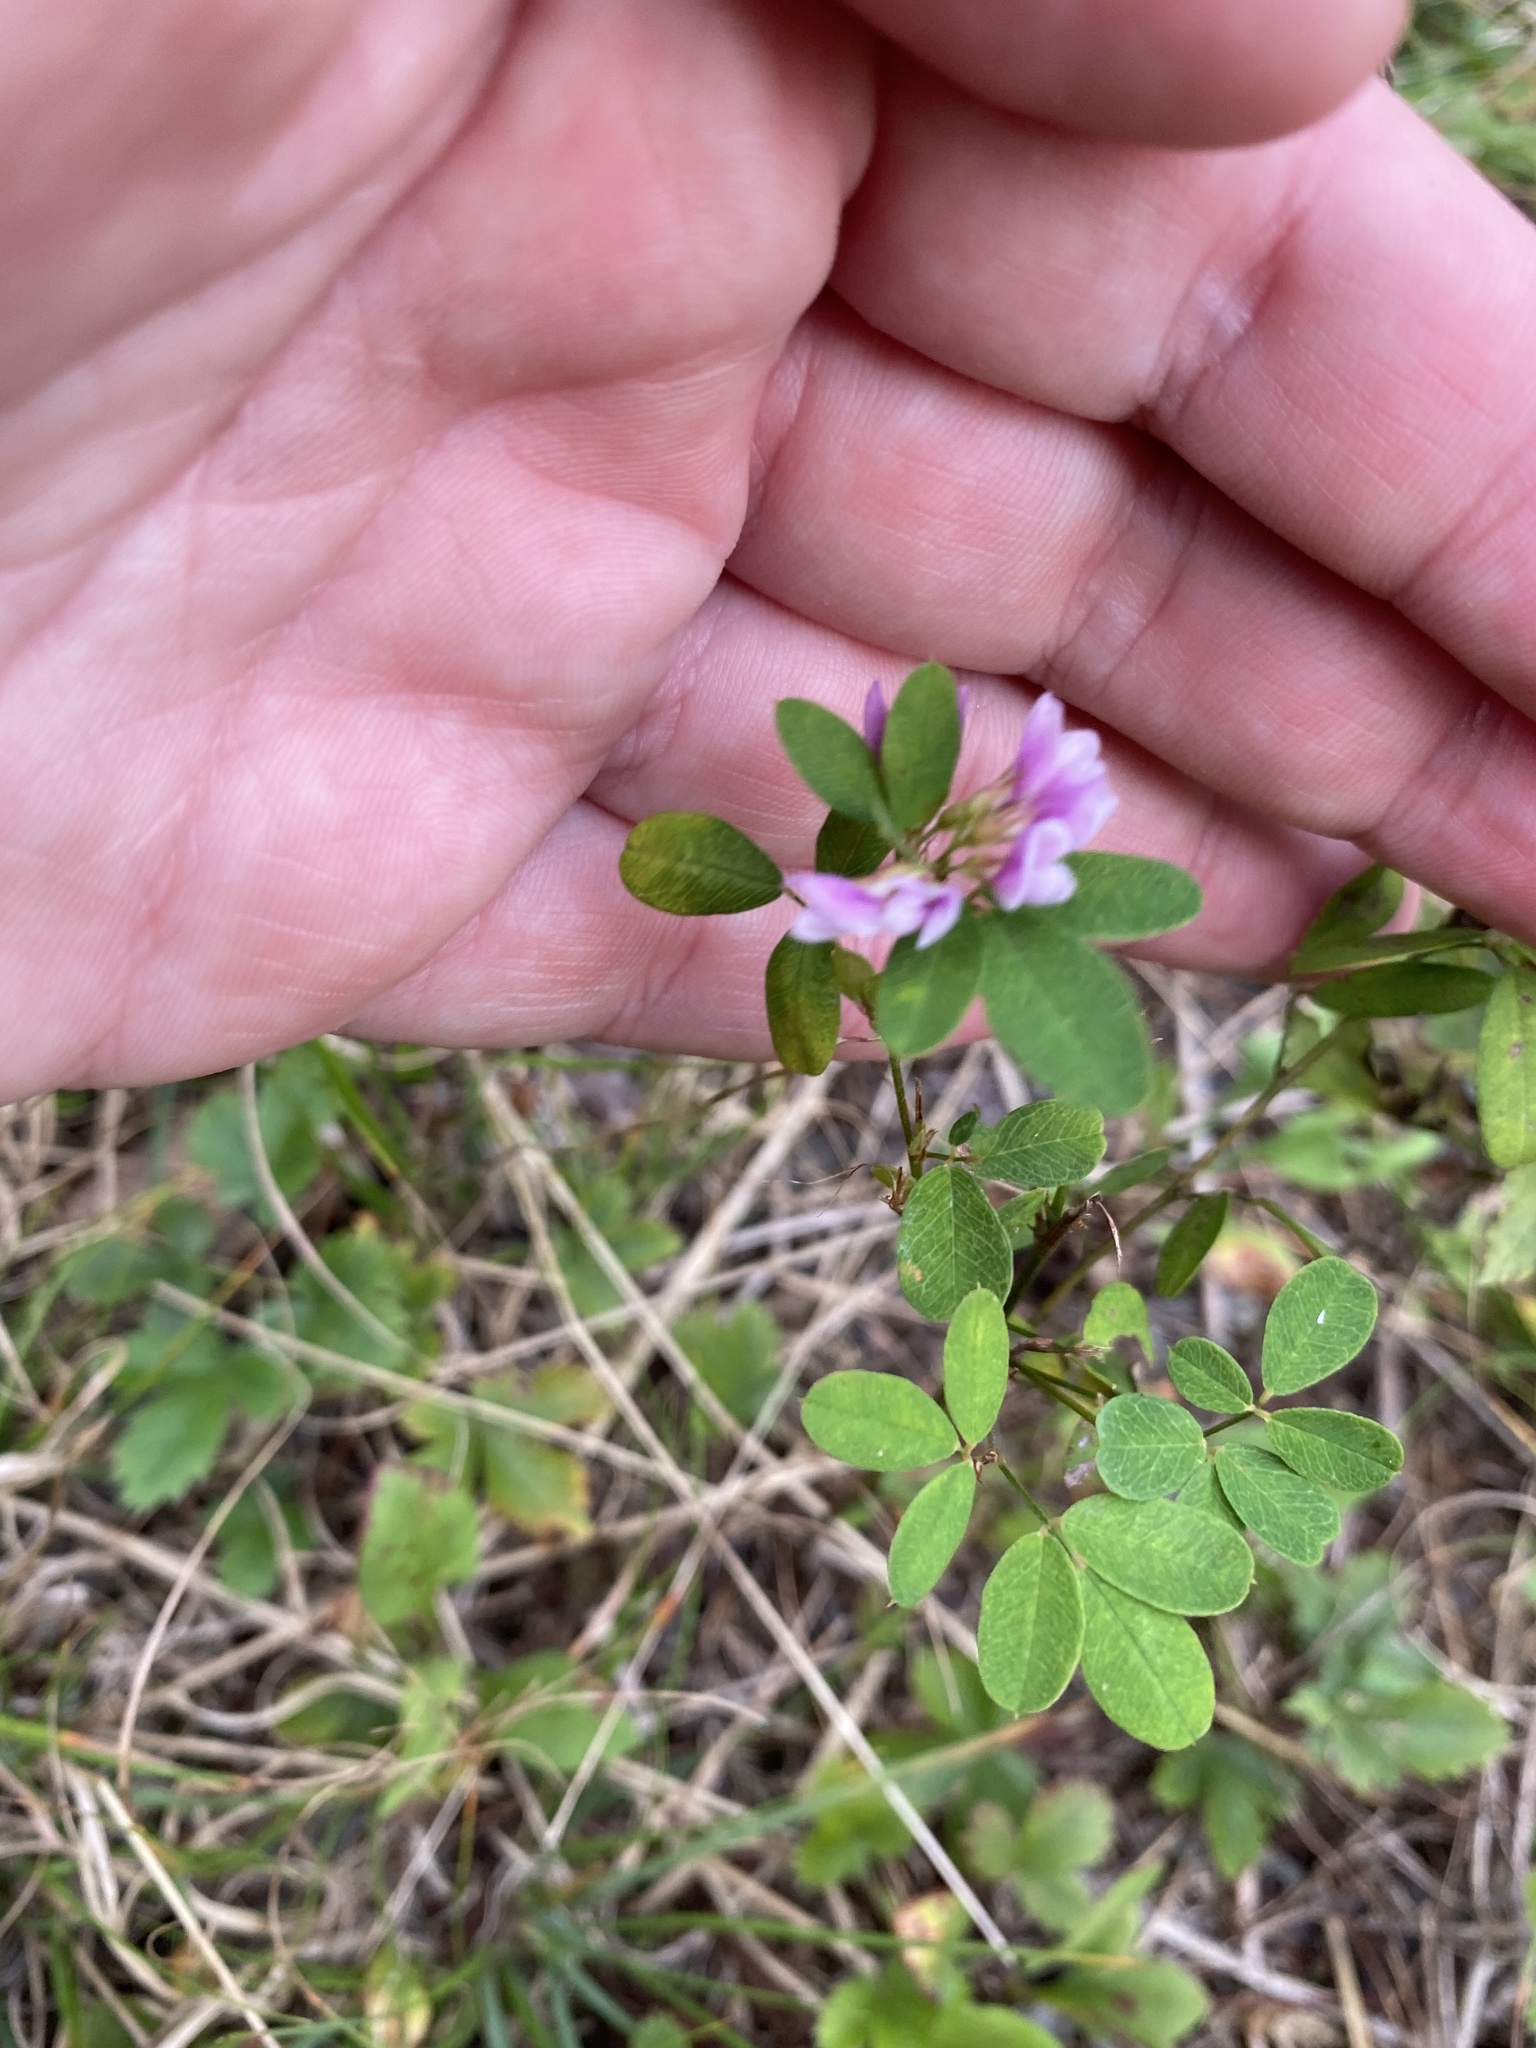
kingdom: Plantae
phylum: Tracheophyta
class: Magnoliopsida
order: Fabales
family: Fabaceae
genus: Lespedeza
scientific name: Lespedeza violacea
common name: Wand bush-clover
